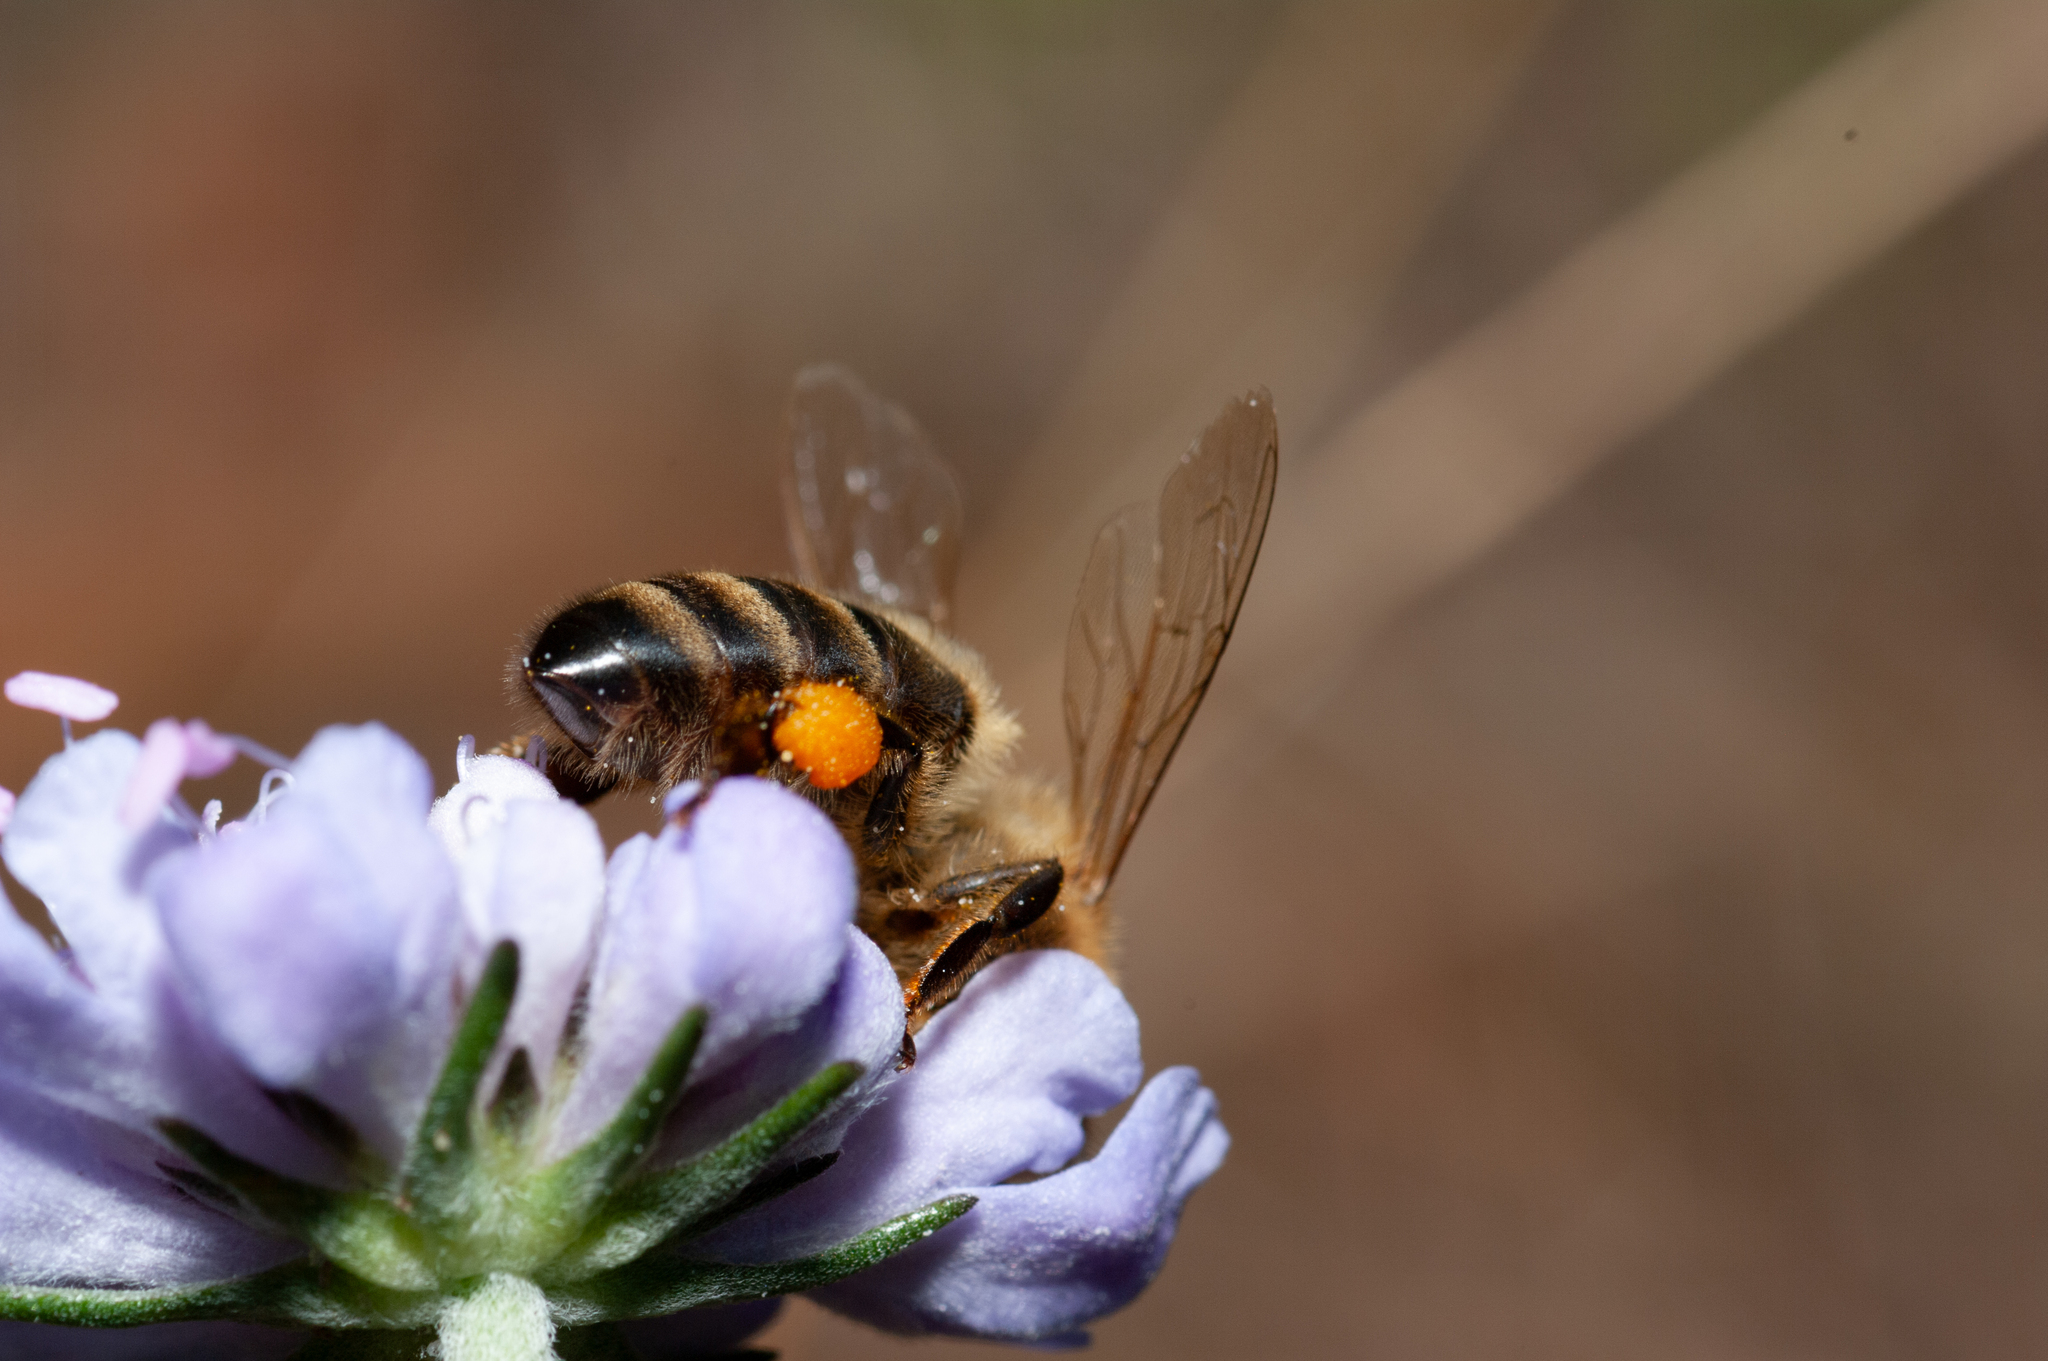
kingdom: Animalia
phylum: Arthropoda
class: Insecta
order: Hymenoptera
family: Apidae
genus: Apis
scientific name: Apis mellifera
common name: Honey bee
